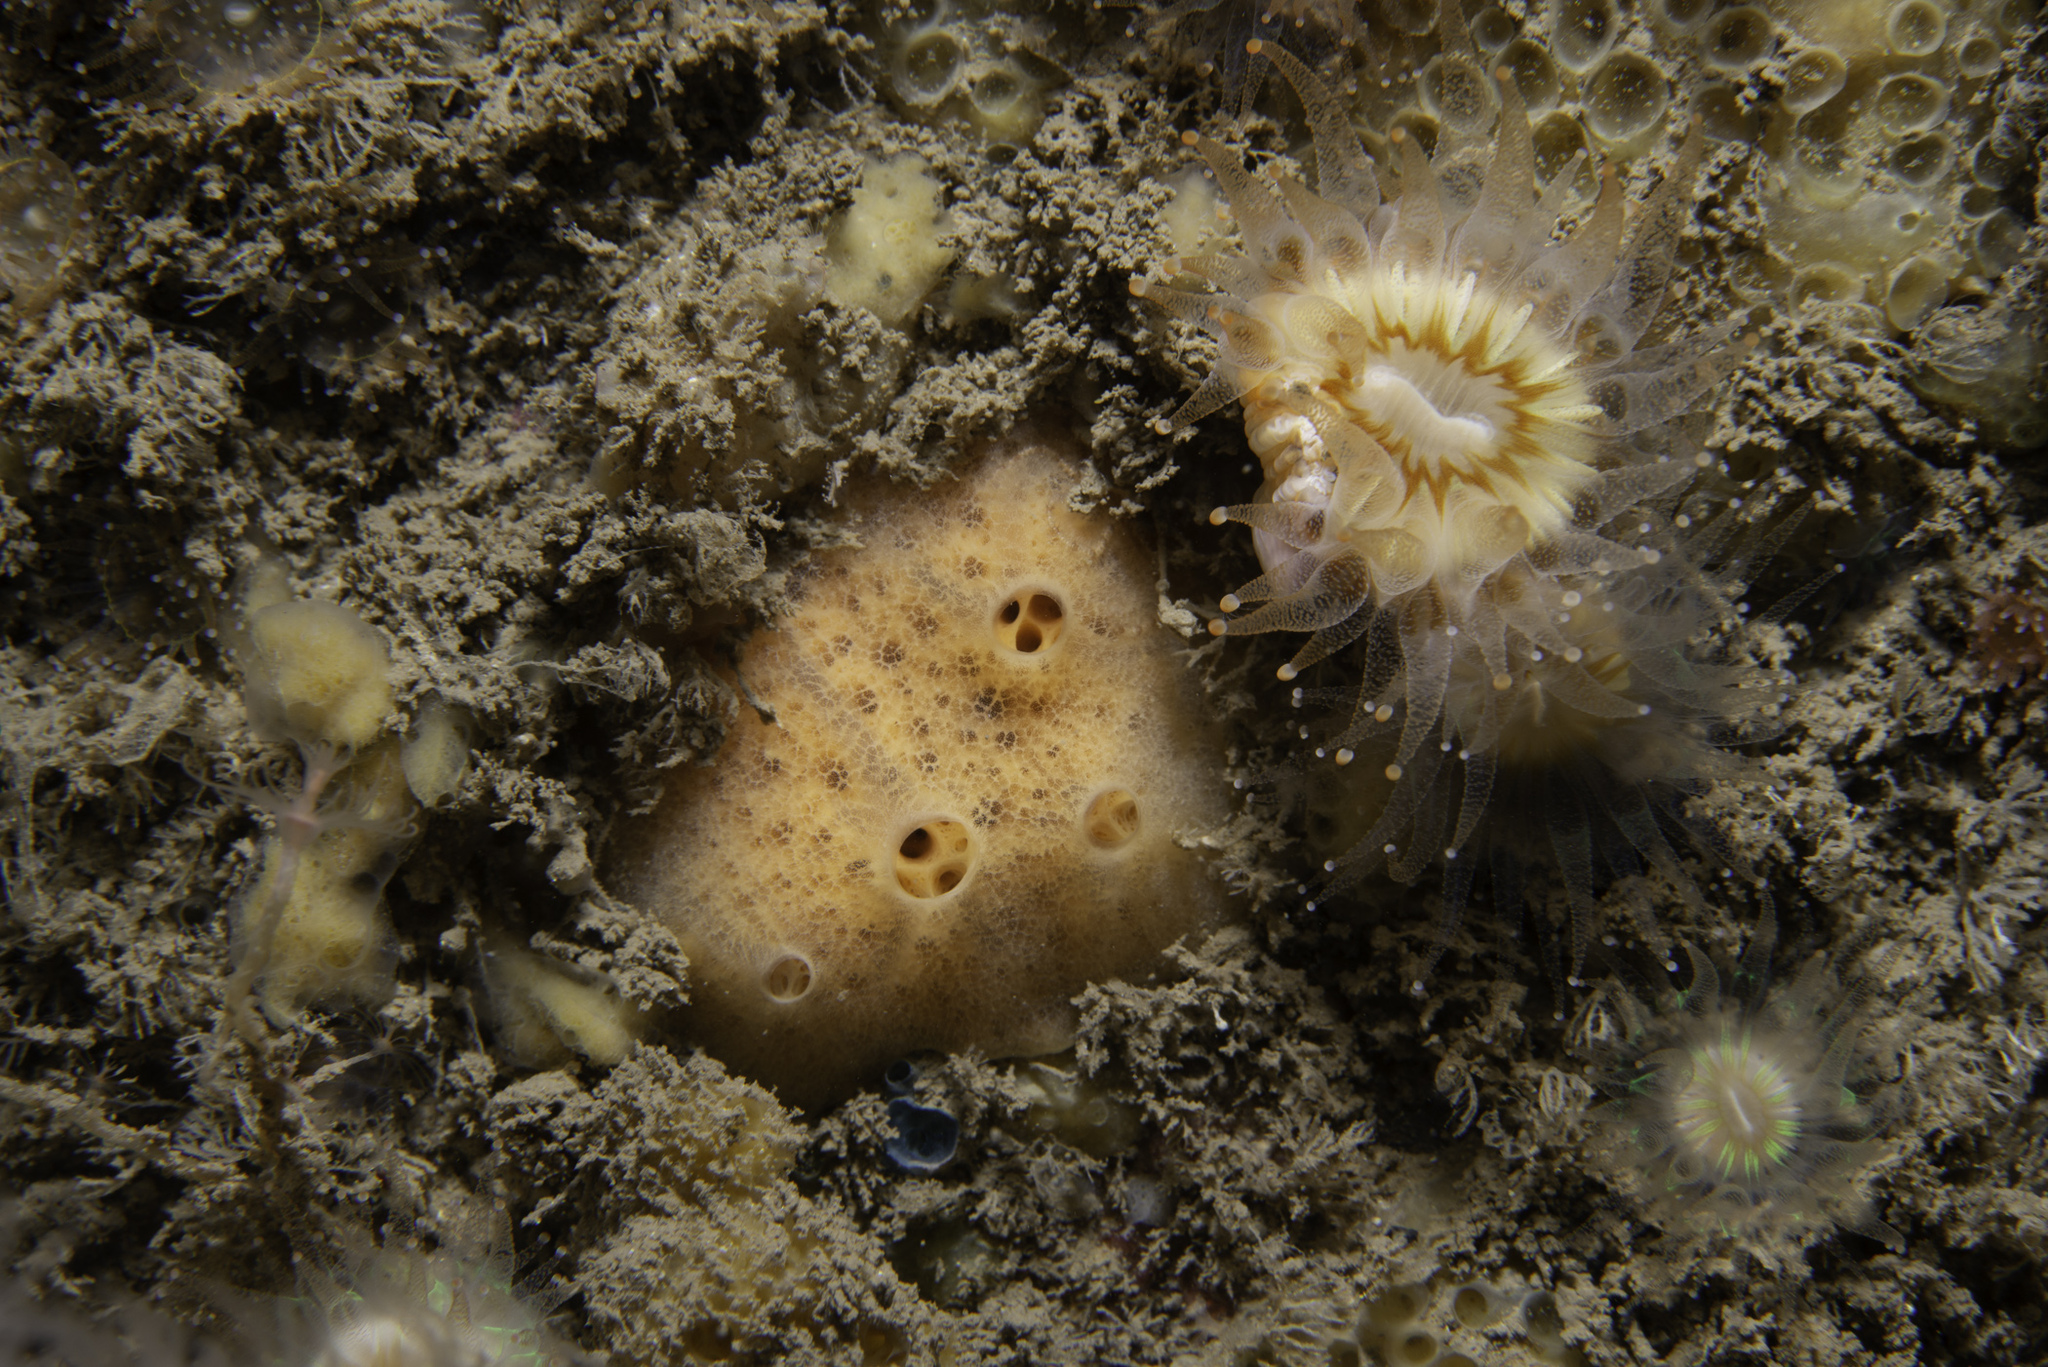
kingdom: Animalia
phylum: Porifera
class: Demospongiae
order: Poecilosclerida
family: Myxillidae
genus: Myxilla
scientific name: Myxilla fimbriata
